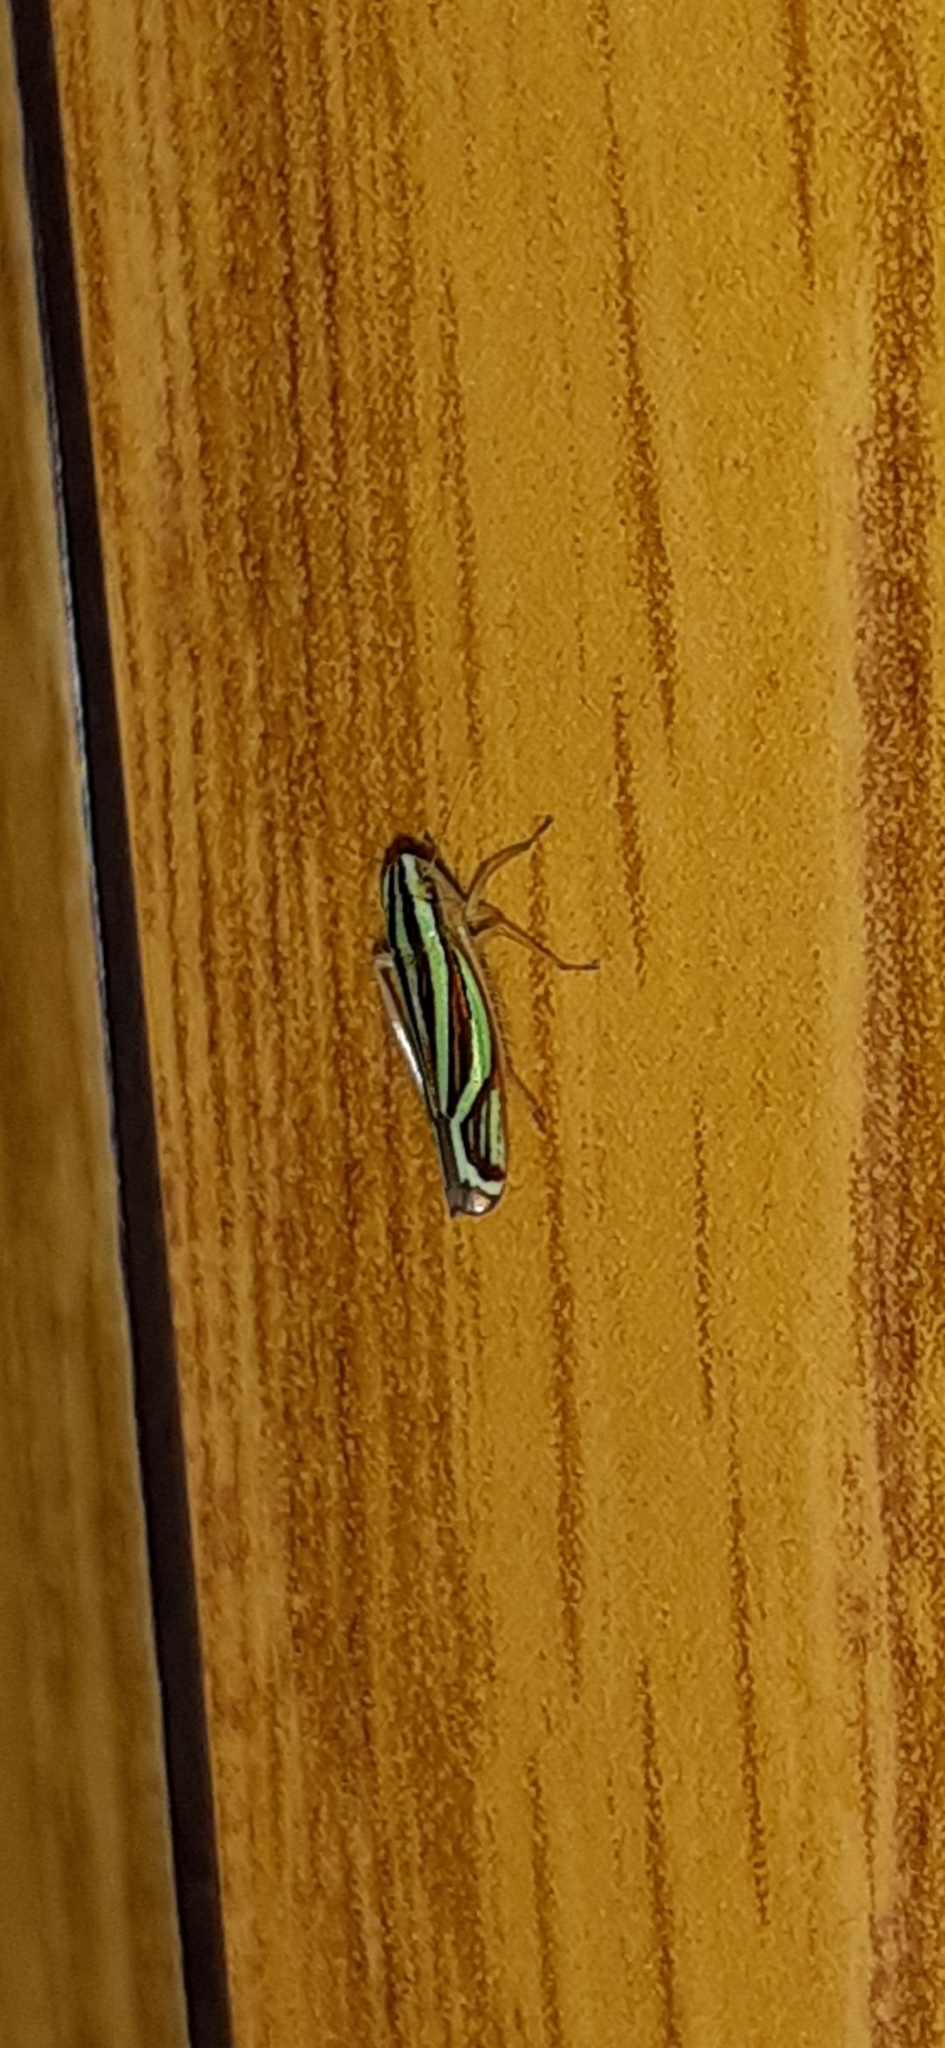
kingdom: Animalia
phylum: Arthropoda
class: Insecta
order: Hemiptera
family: Cicadellidae
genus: Sibovia
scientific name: Sibovia sagata
